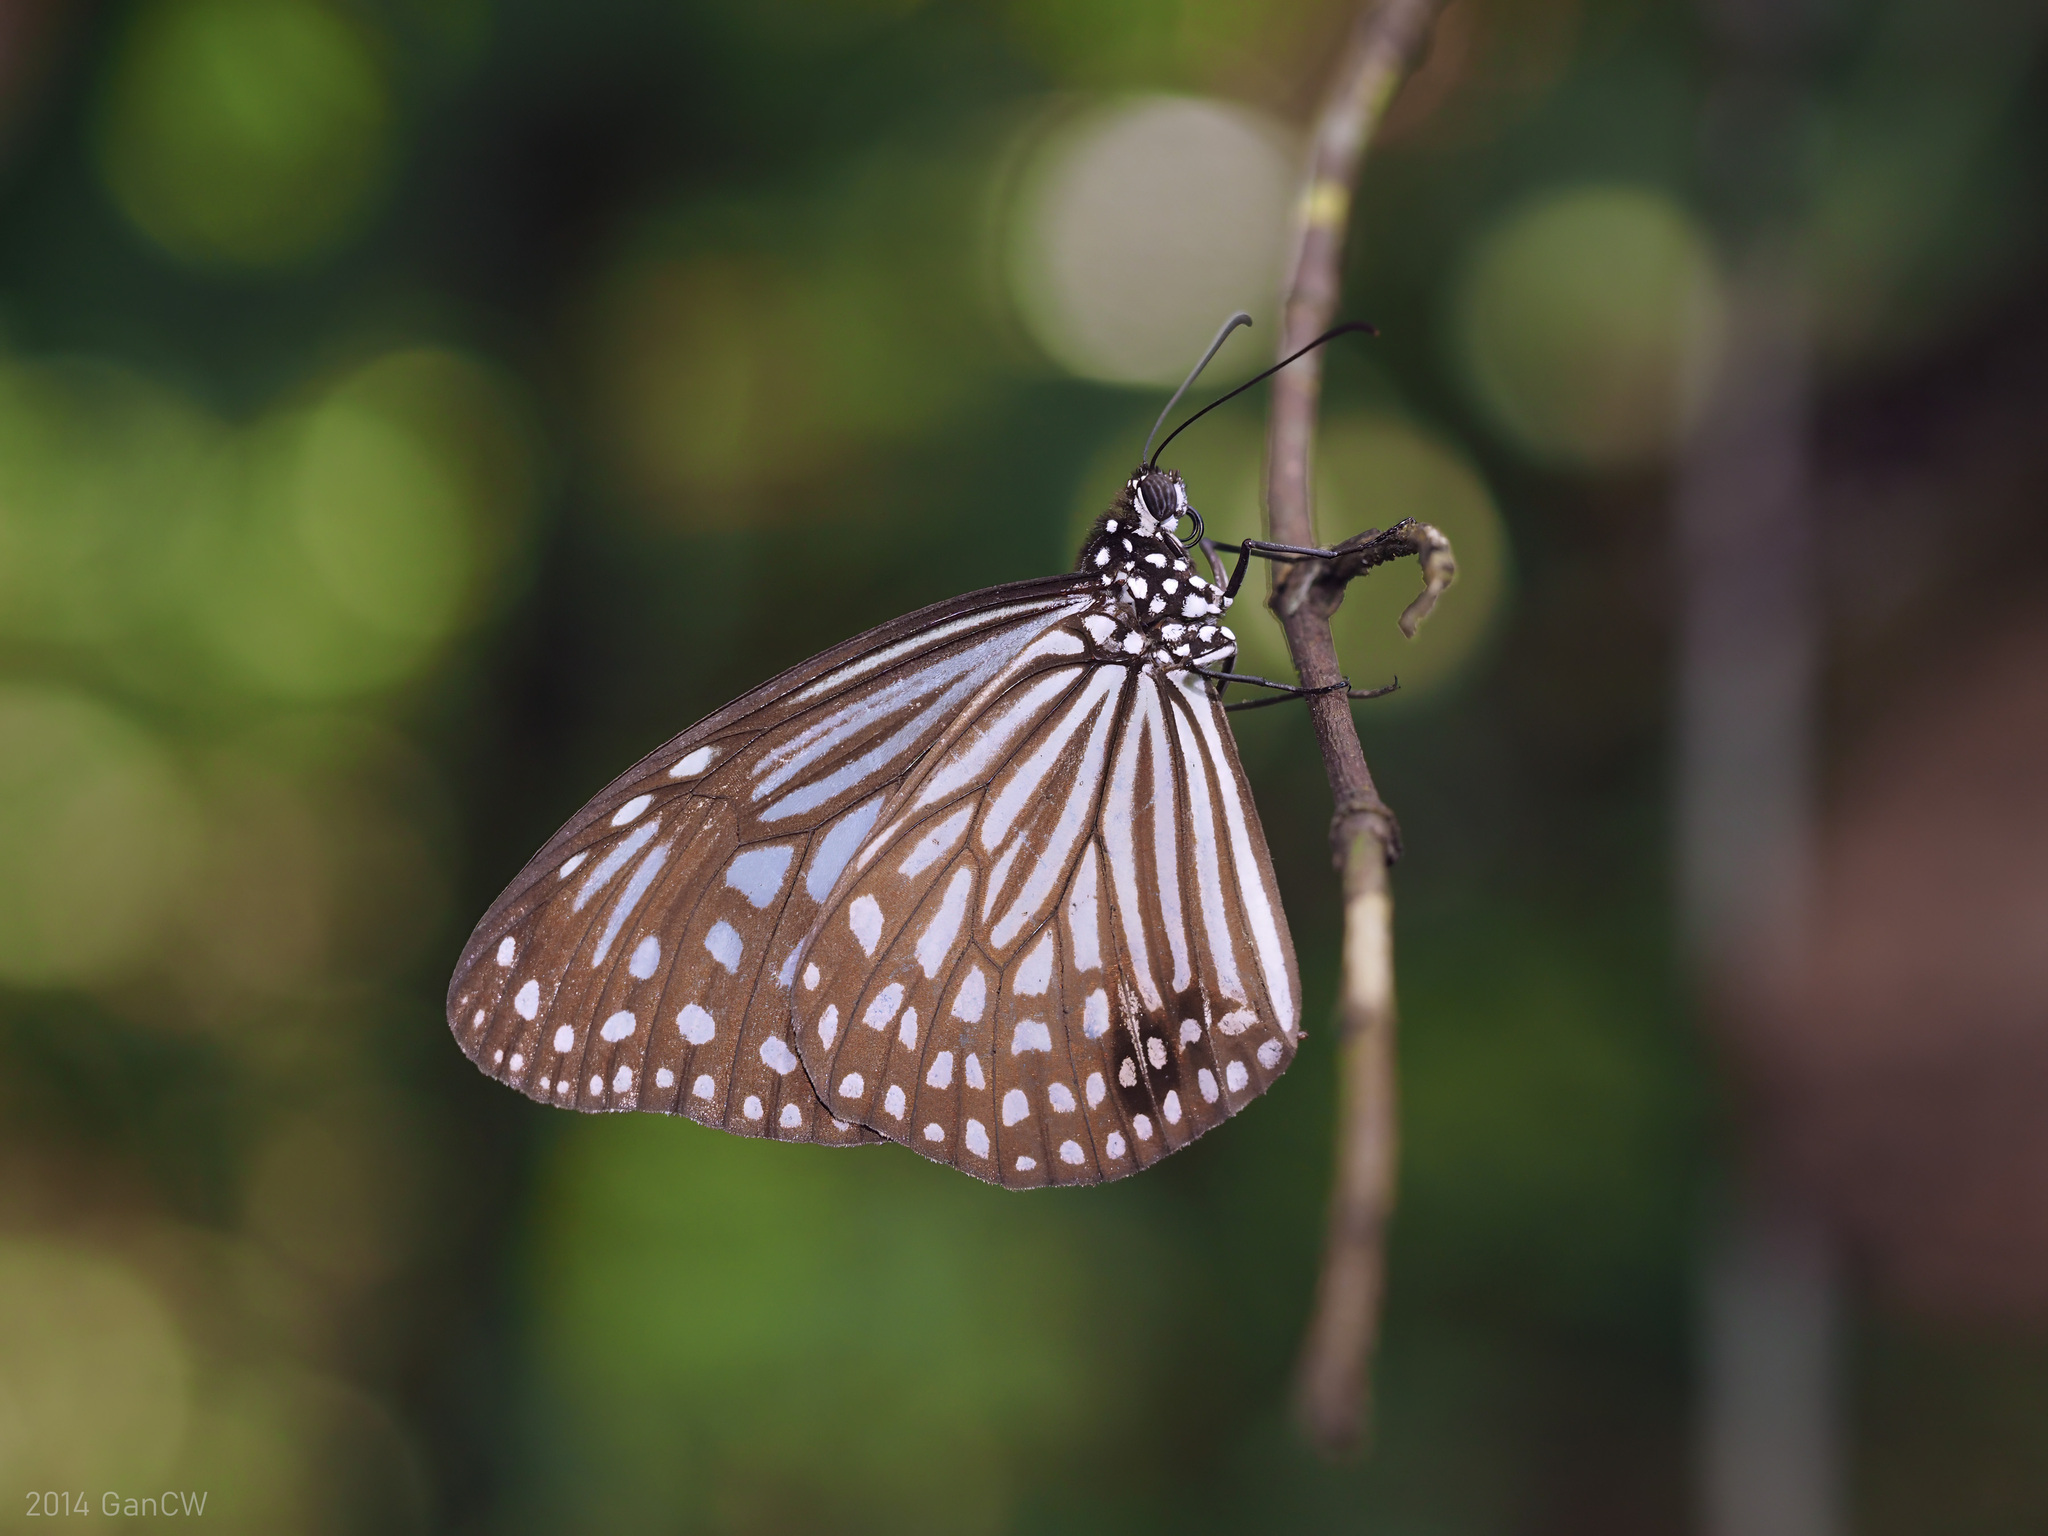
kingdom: Animalia
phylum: Arthropoda
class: Insecta
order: Lepidoptera
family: Nymphalidae
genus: Parantica
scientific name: Parantica agleoides
